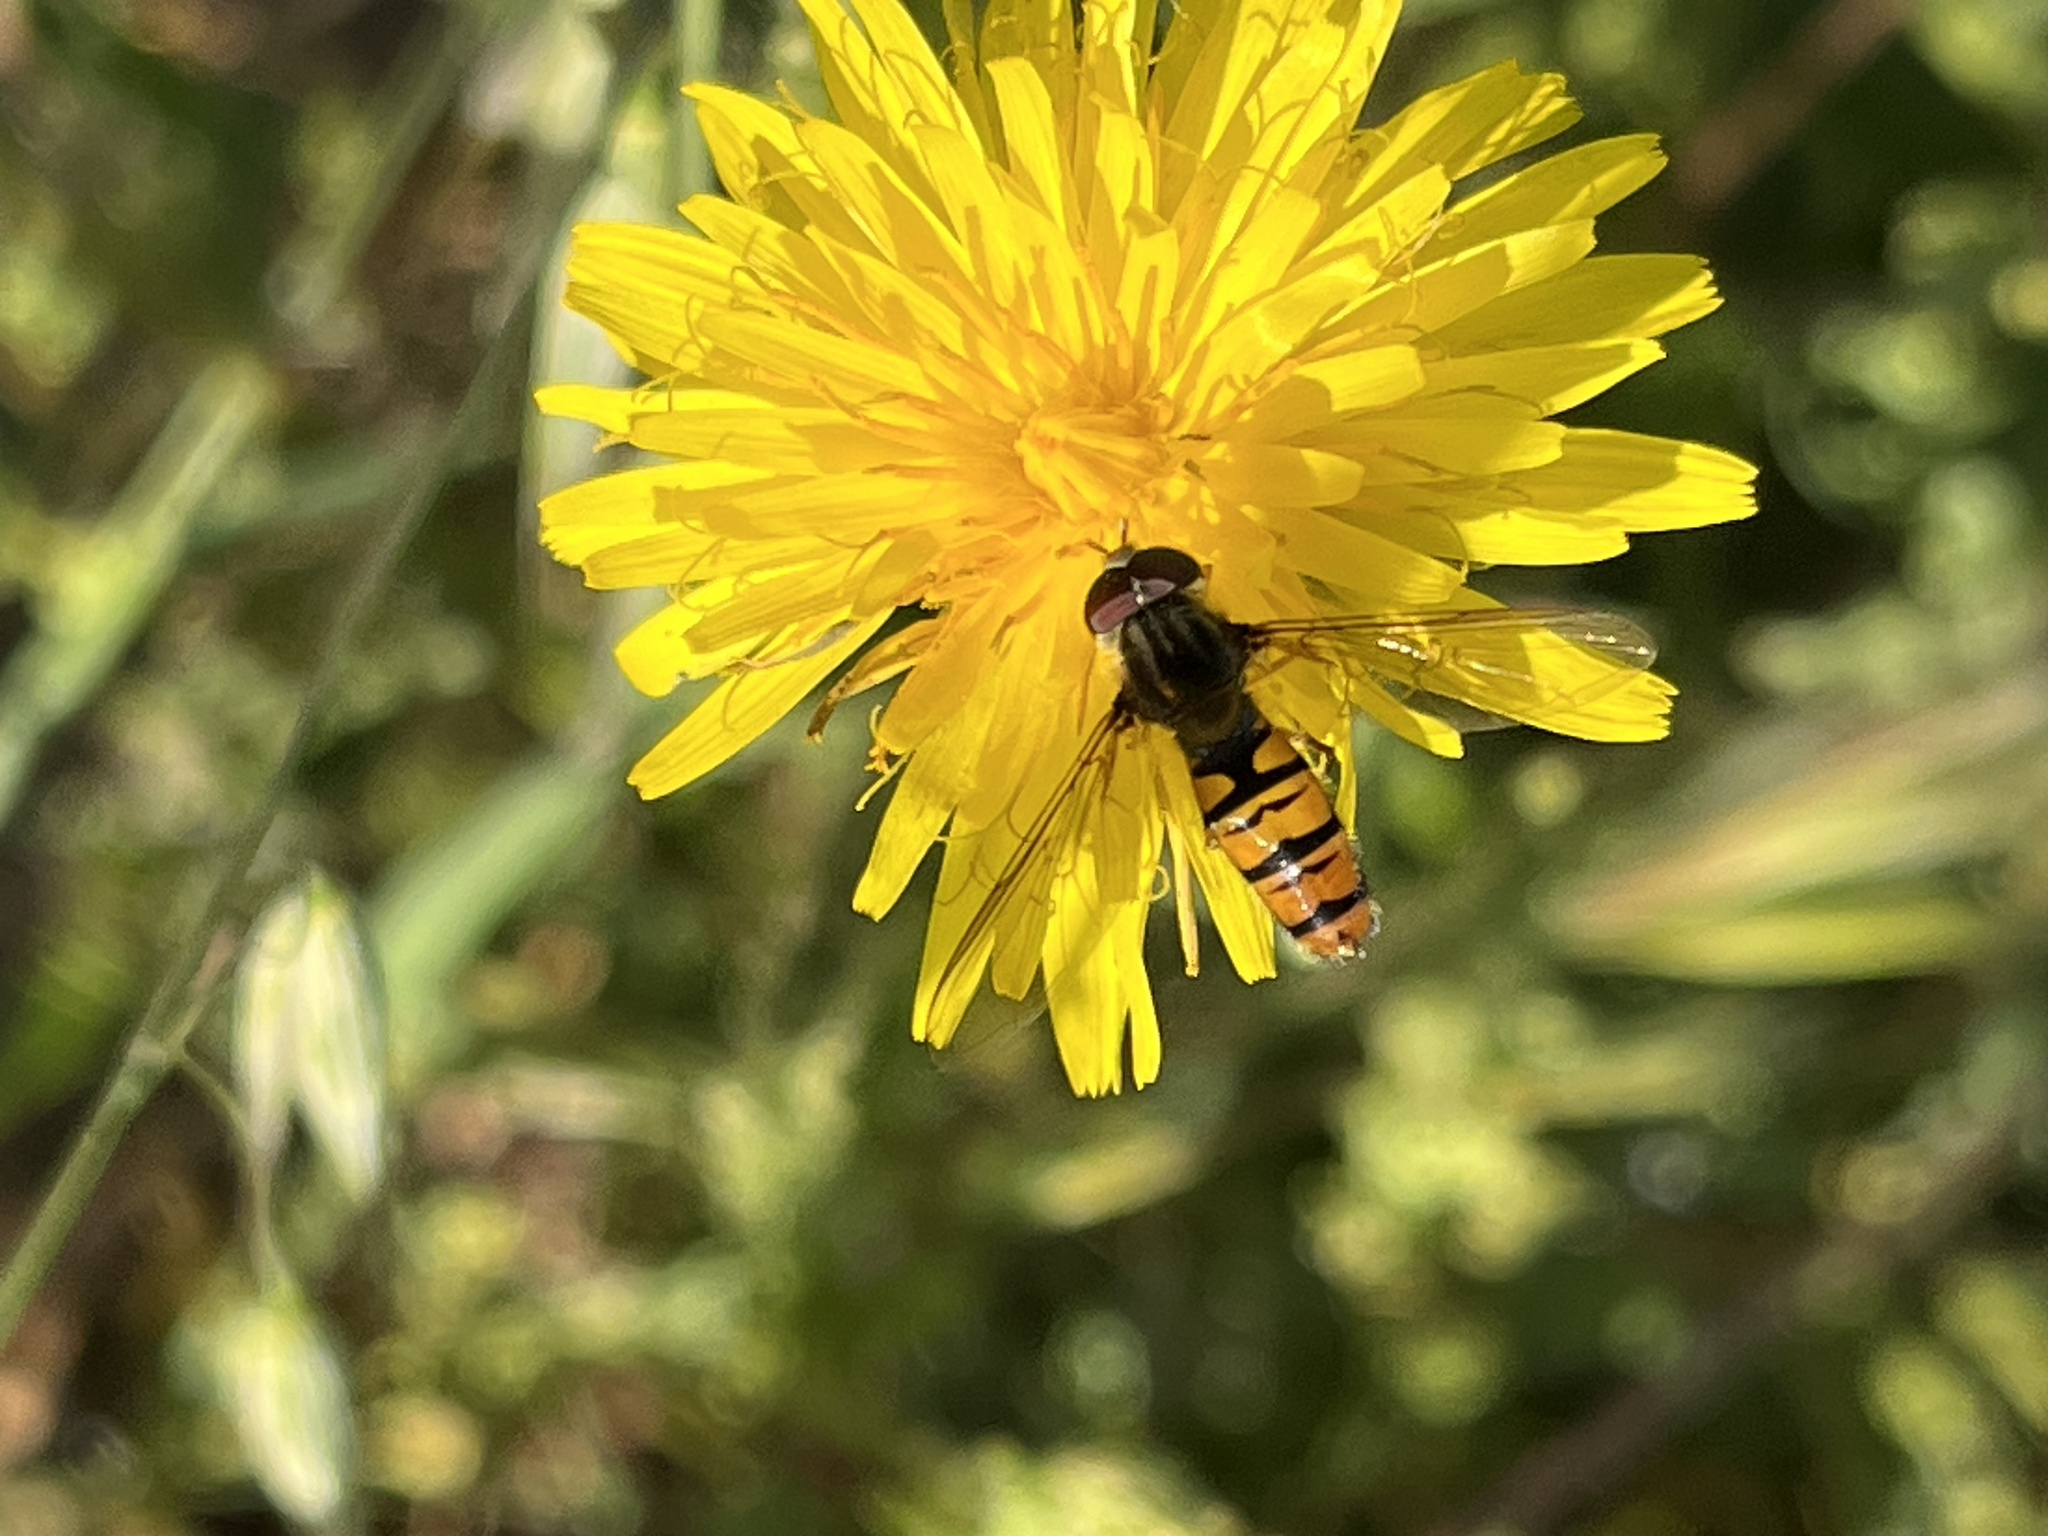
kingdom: Animalia
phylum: Arthropoda
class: Insecta
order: Diptera
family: Syrphidae
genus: Episyrphus
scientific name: Episyrphus balteatus
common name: Marmalade hoverfly
